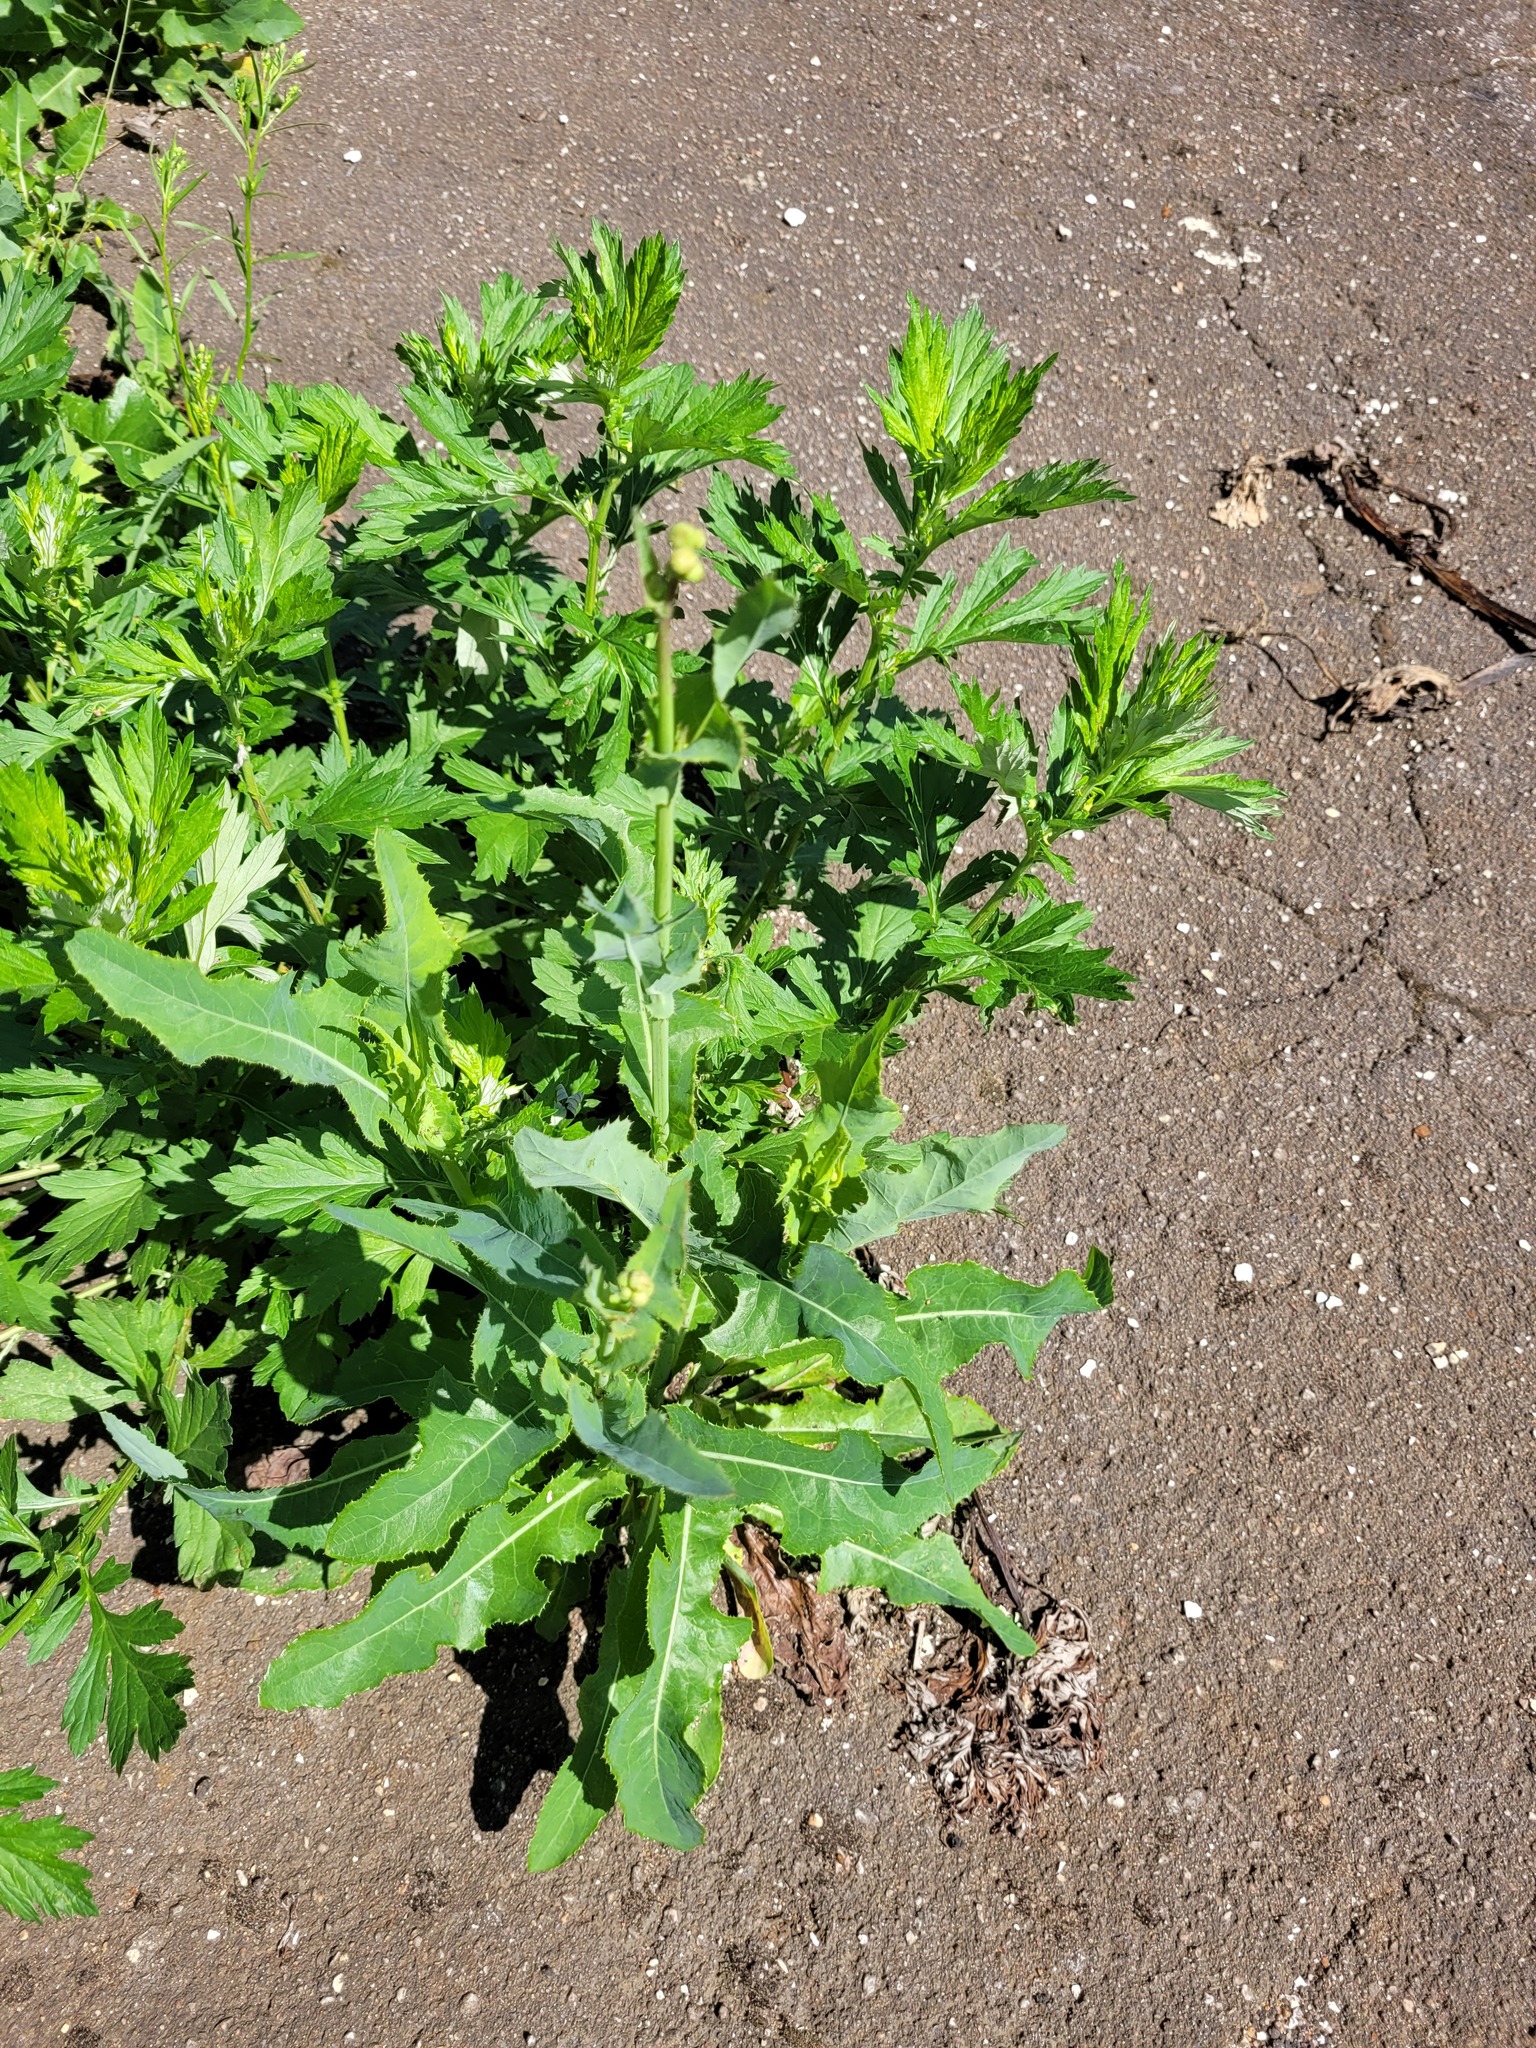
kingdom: Plantae
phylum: Tracheophyta
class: Magnoliopsida
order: Asterales
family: Asteraceae
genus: Sonchus
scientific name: Sonchus arvensis
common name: Perennial sow-thistle
